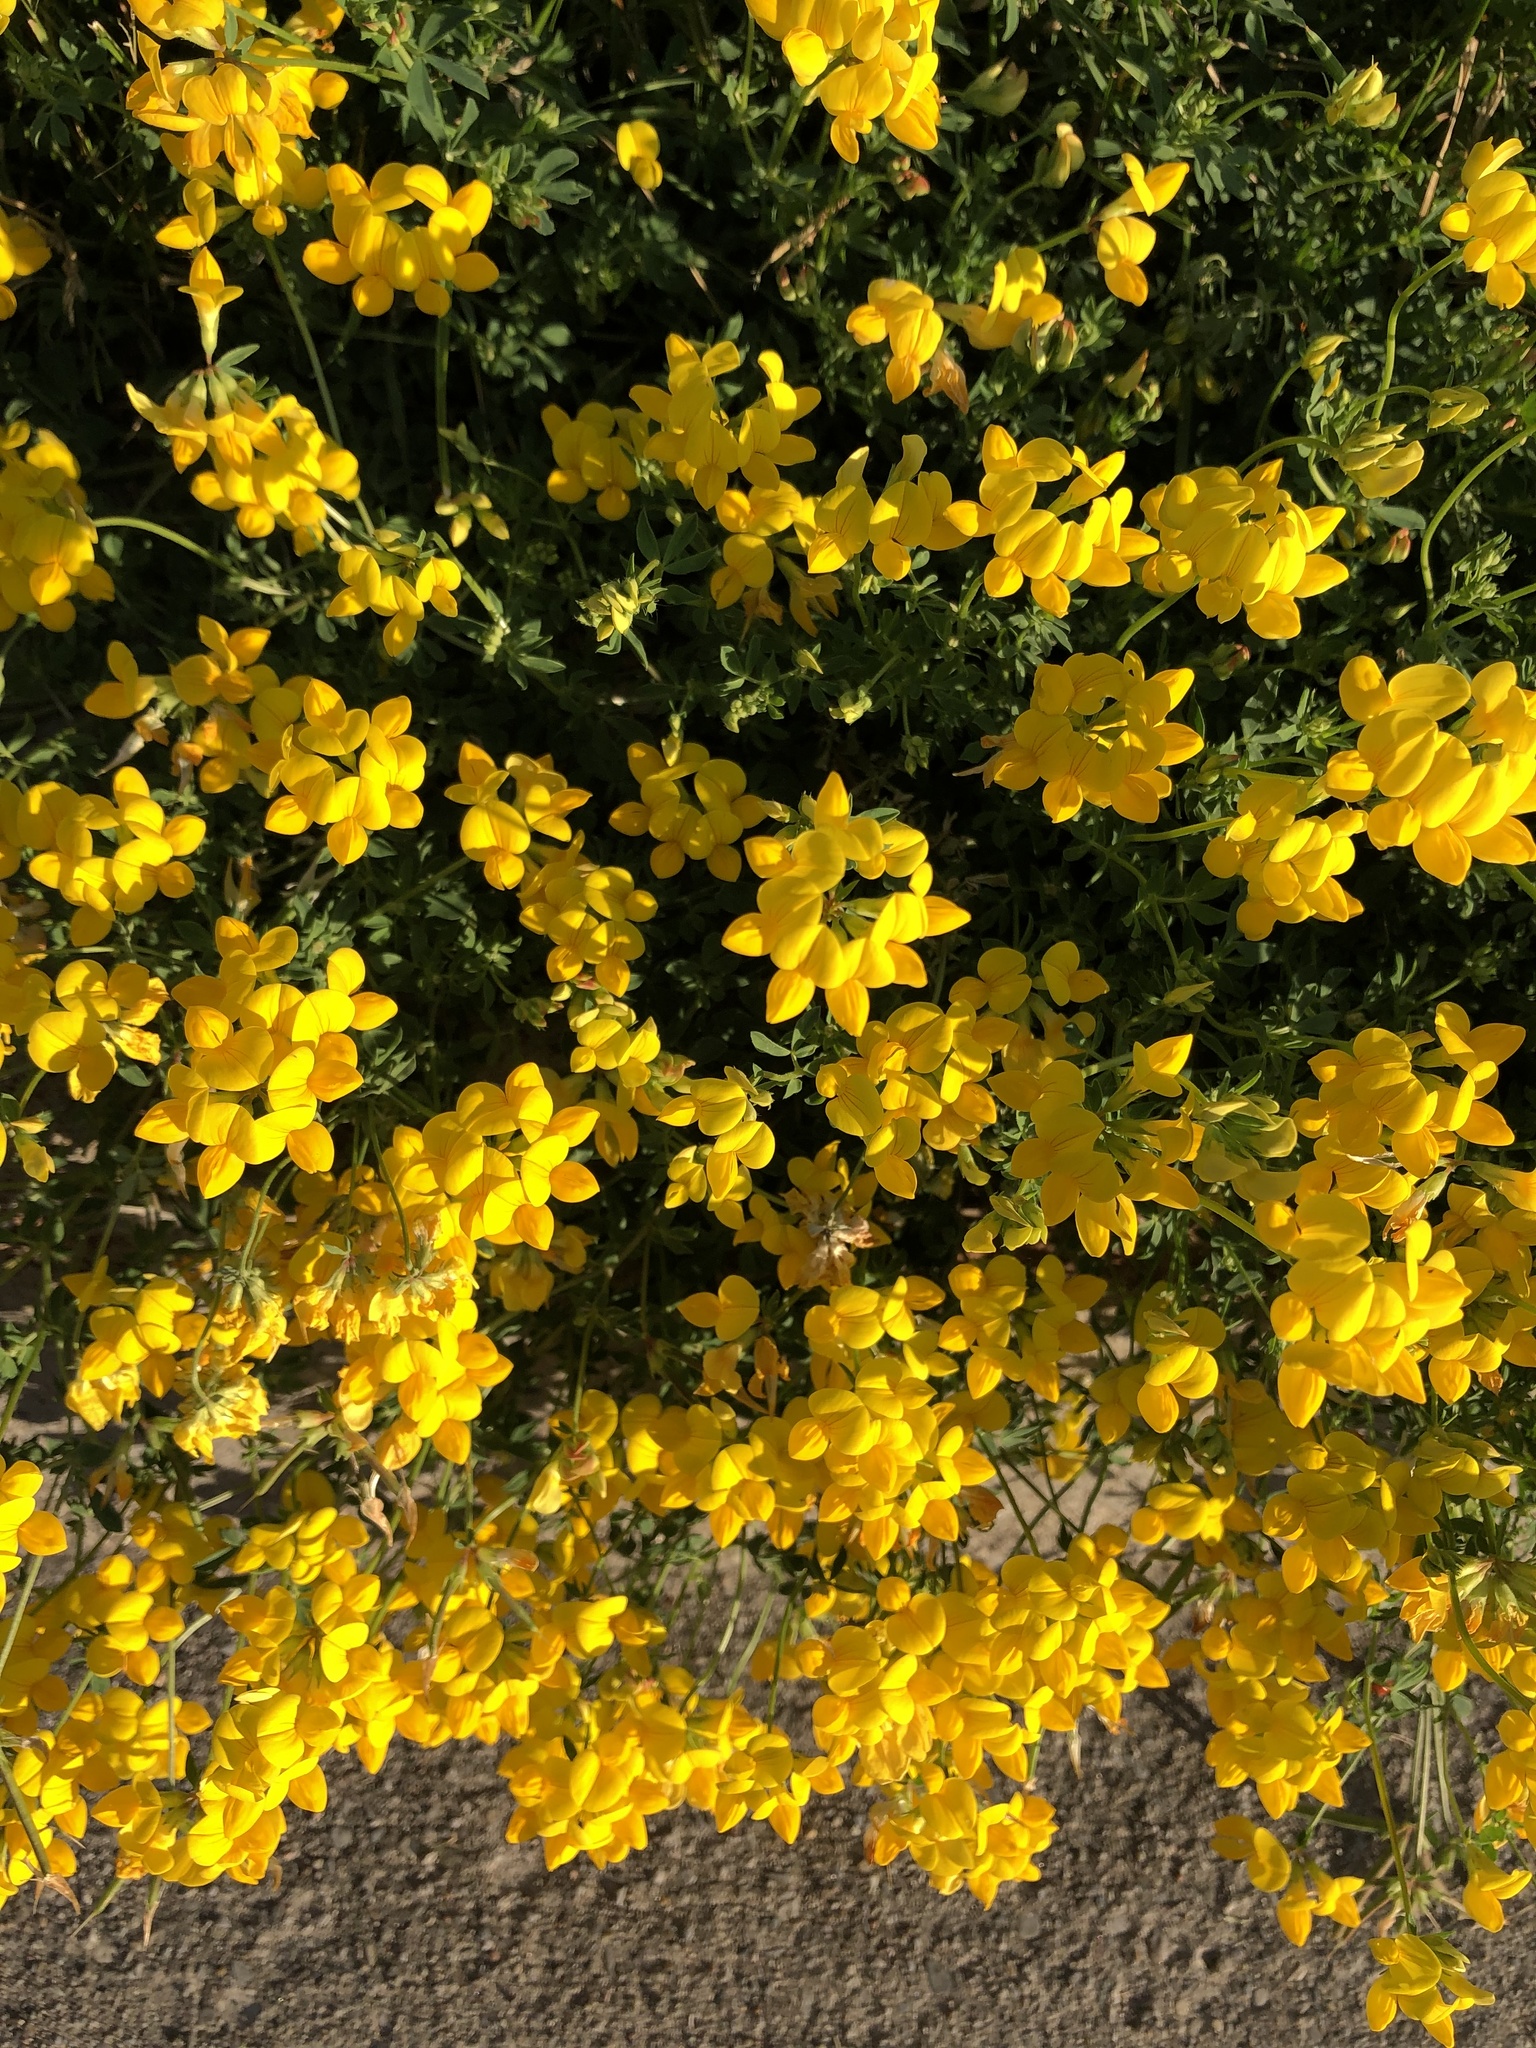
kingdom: Plantae
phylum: Tracheophyta
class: Magnoliopsida
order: Fabales
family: Fabaceae
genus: Lotus
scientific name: Lotus corniculatus
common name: Common bird's-foot-trefoil
